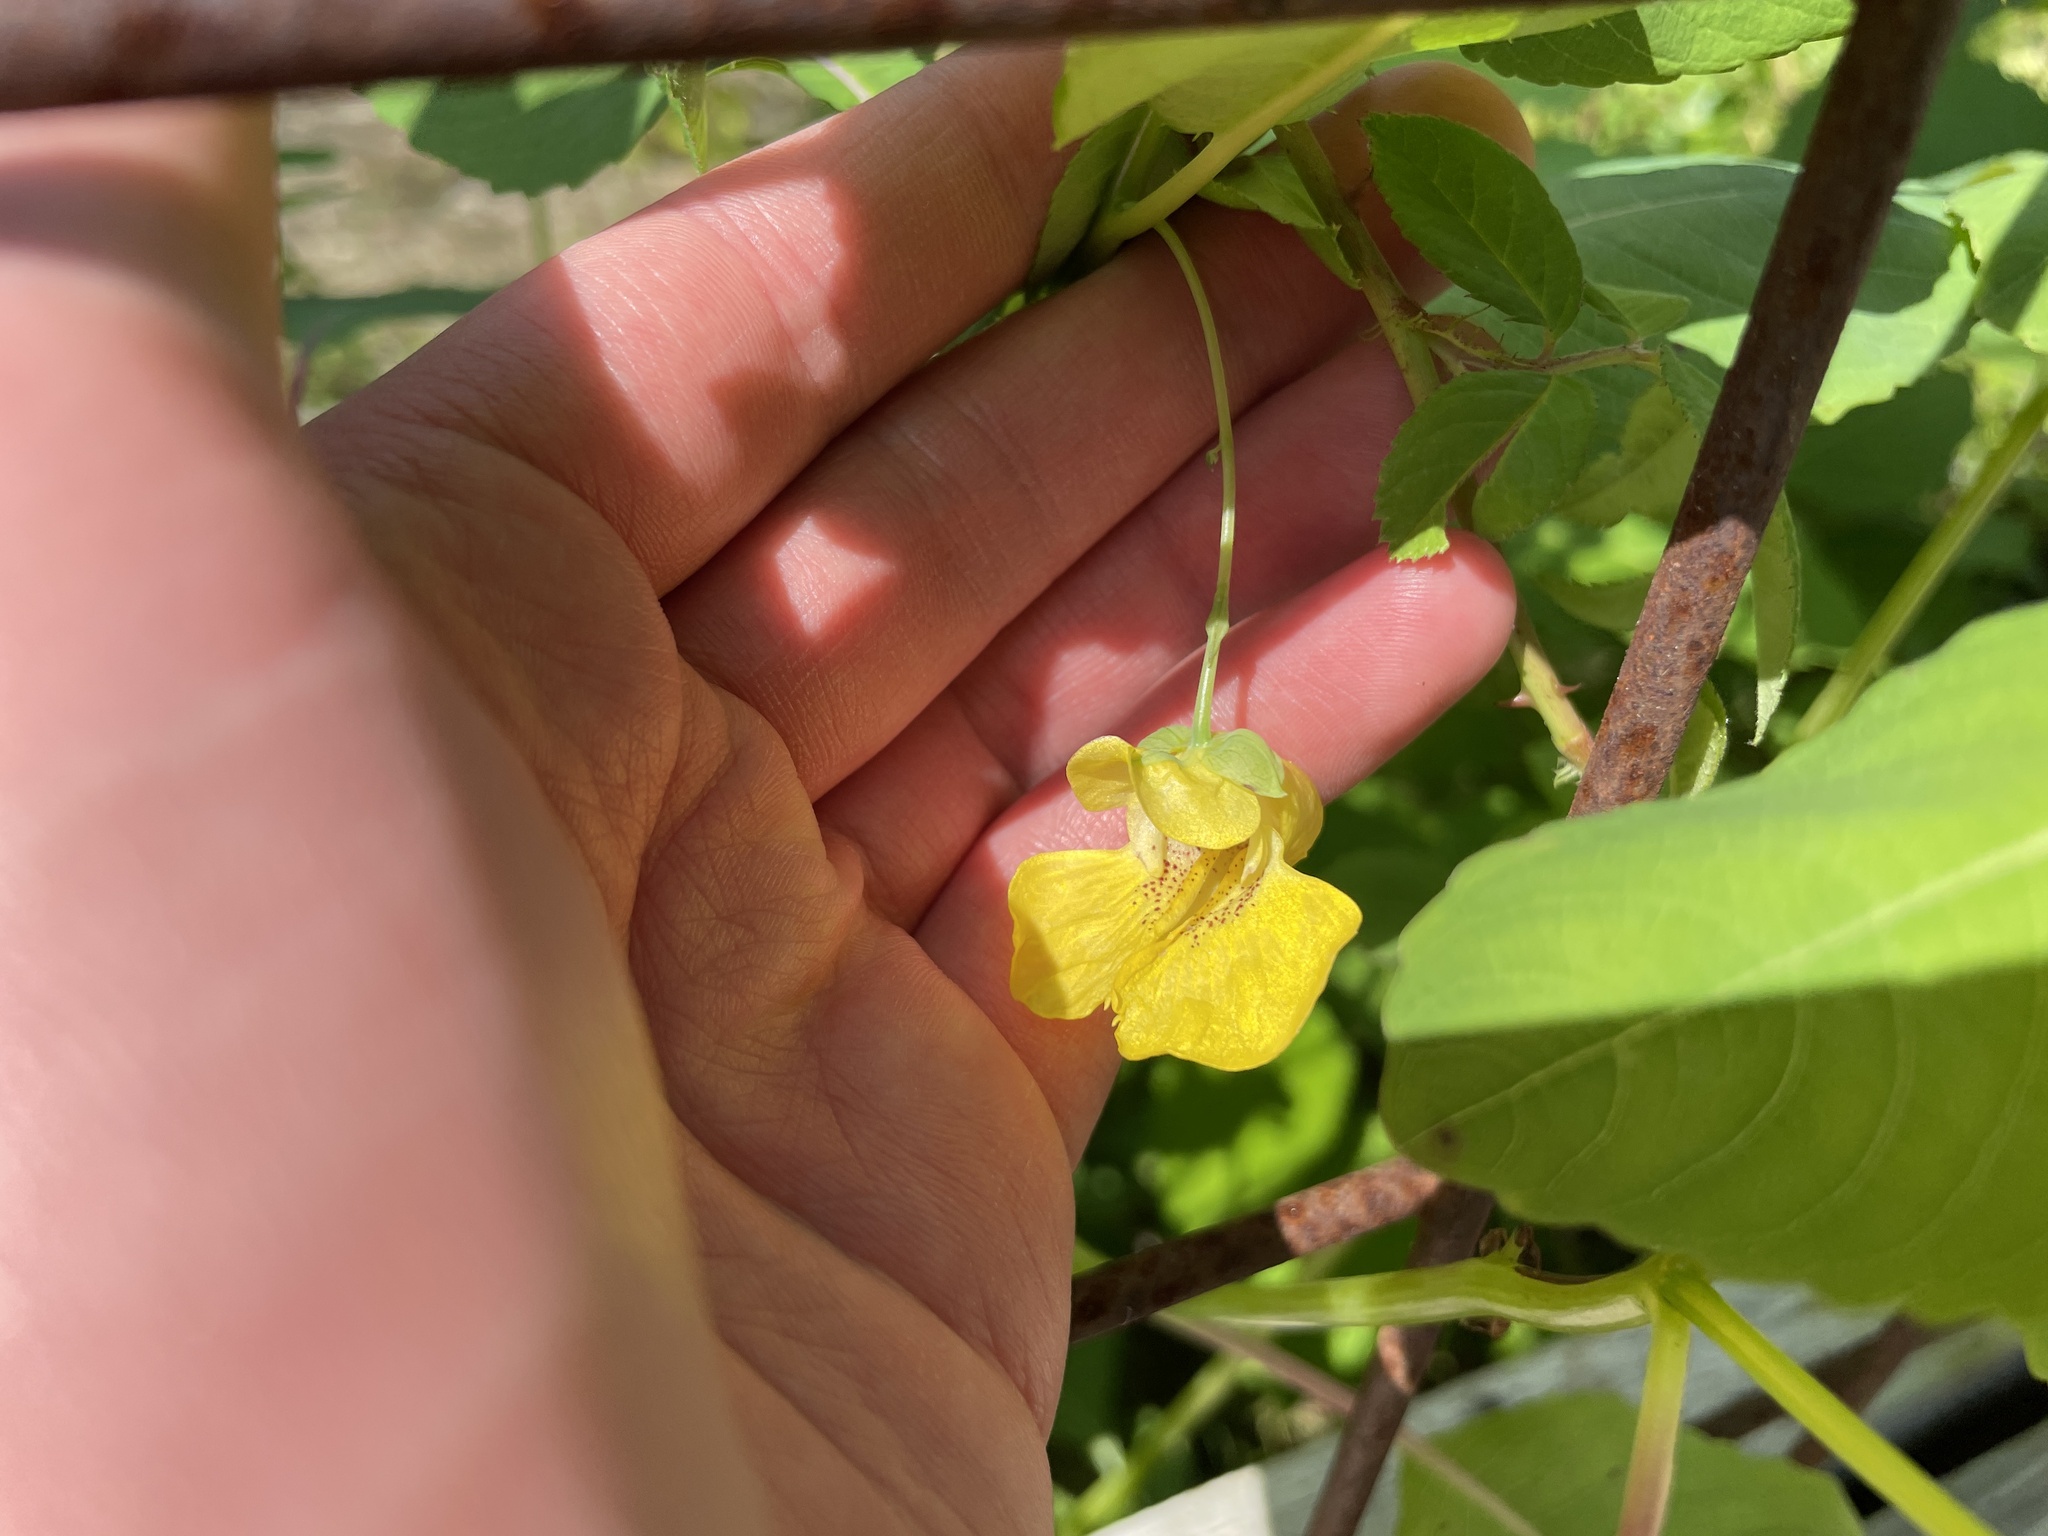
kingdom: Plantae
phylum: Tracheophyta
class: Magnoliopsida
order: Ericales
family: Balsaminaceae
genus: Impatiens
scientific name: Impatiens pallida
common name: Pale snapweed
